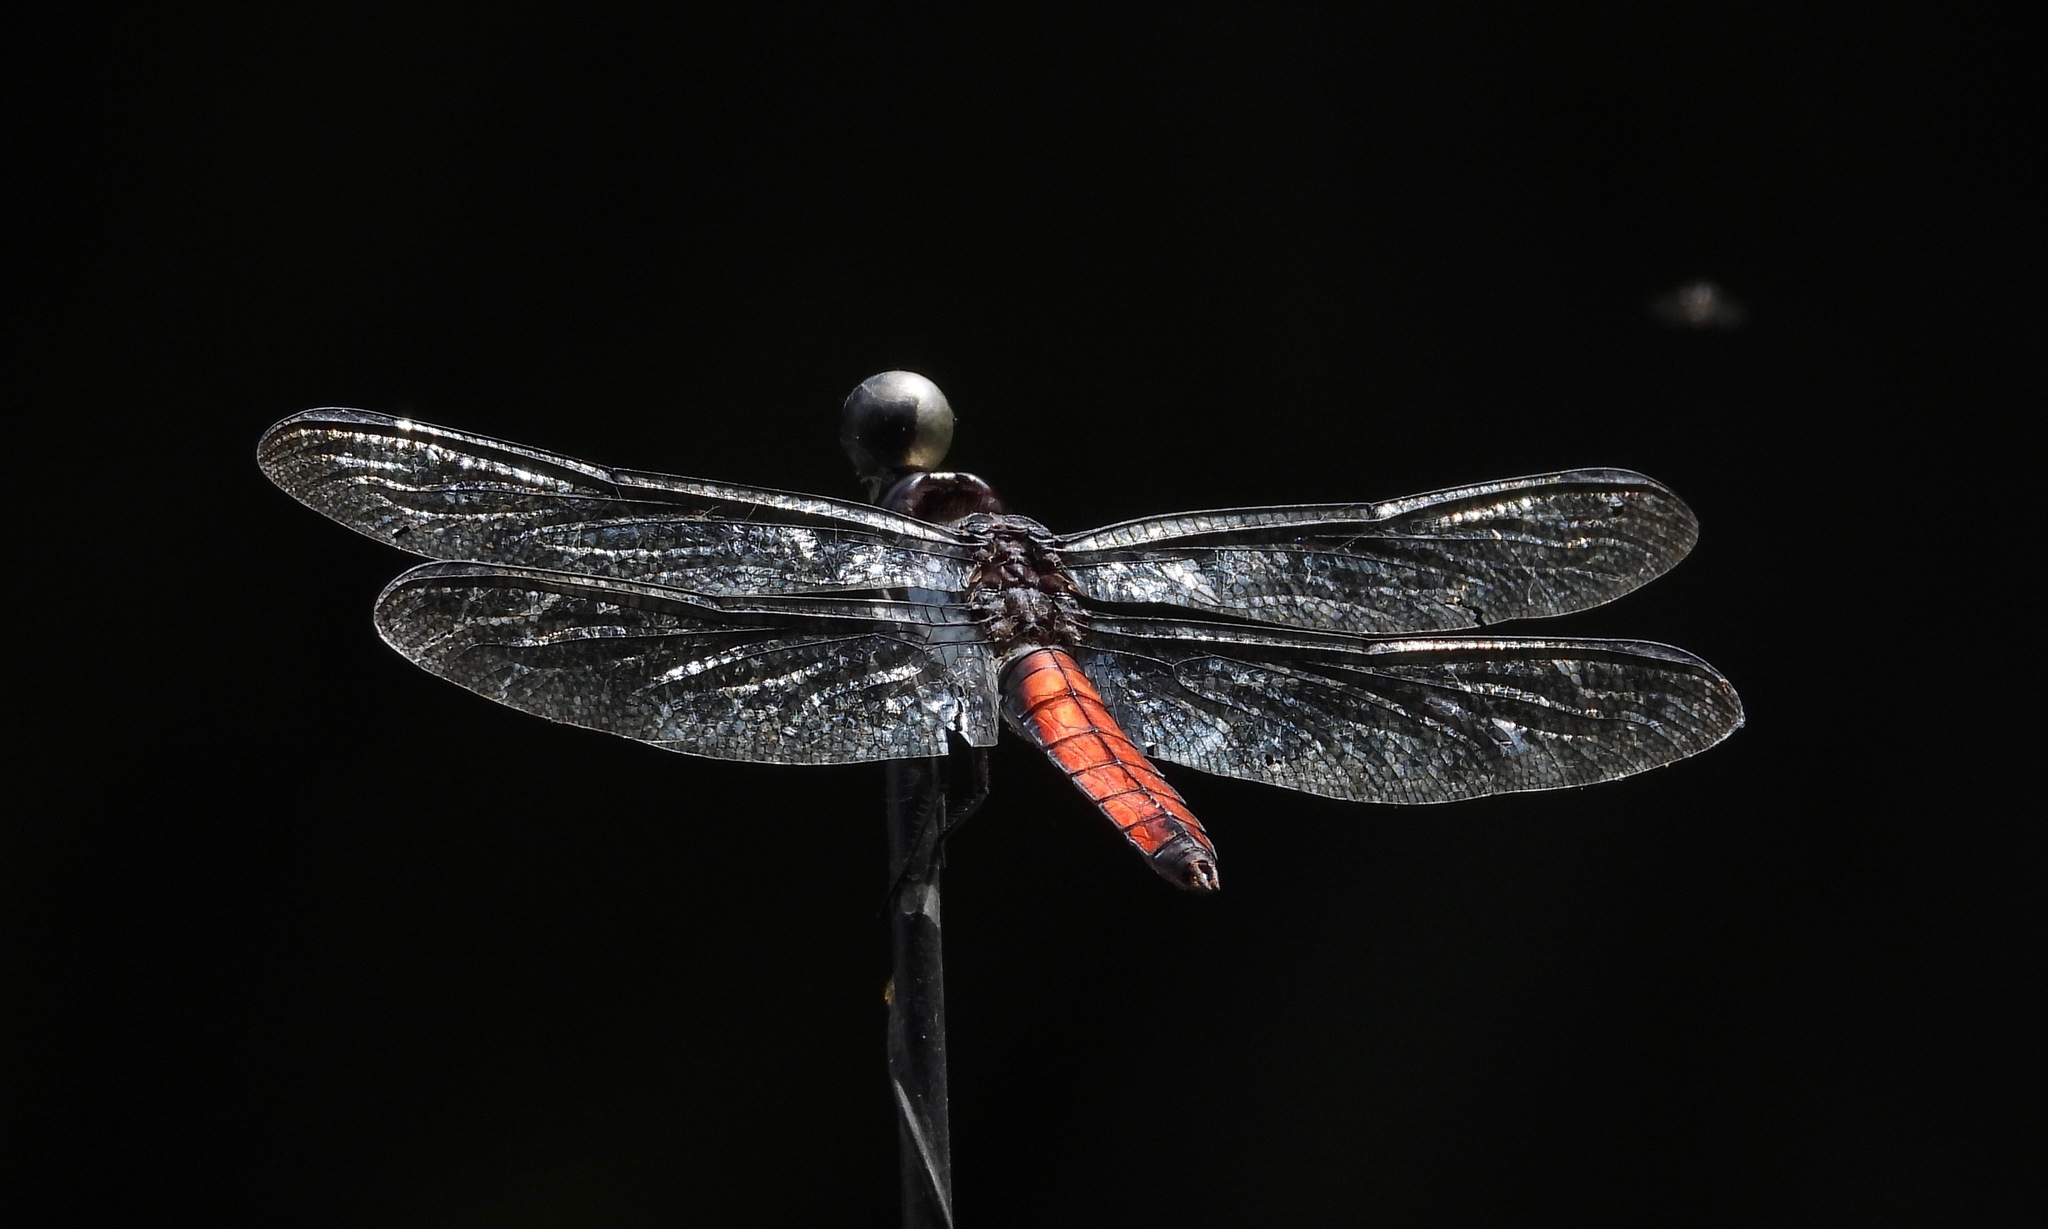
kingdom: Animalia
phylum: Arthropoda
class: Insecta
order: Odonata
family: Libellulidae
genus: Libellula
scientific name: Libellula herculea
